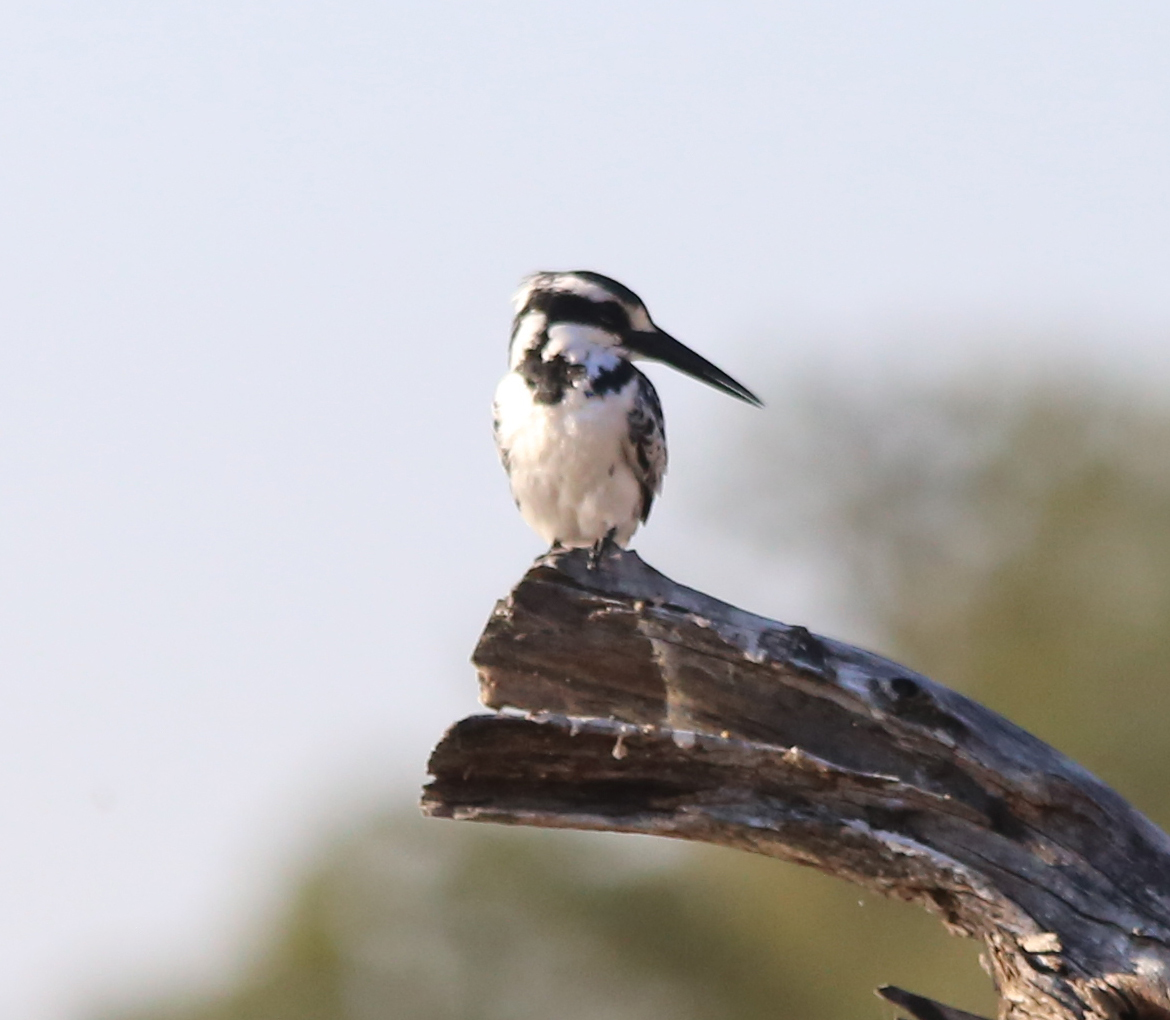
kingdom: Animalia
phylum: Chordata
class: Aves
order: Coraciiformes
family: Alcedinidae
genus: Ceryle
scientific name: Ceryle rudis
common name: Pied kingfisher
